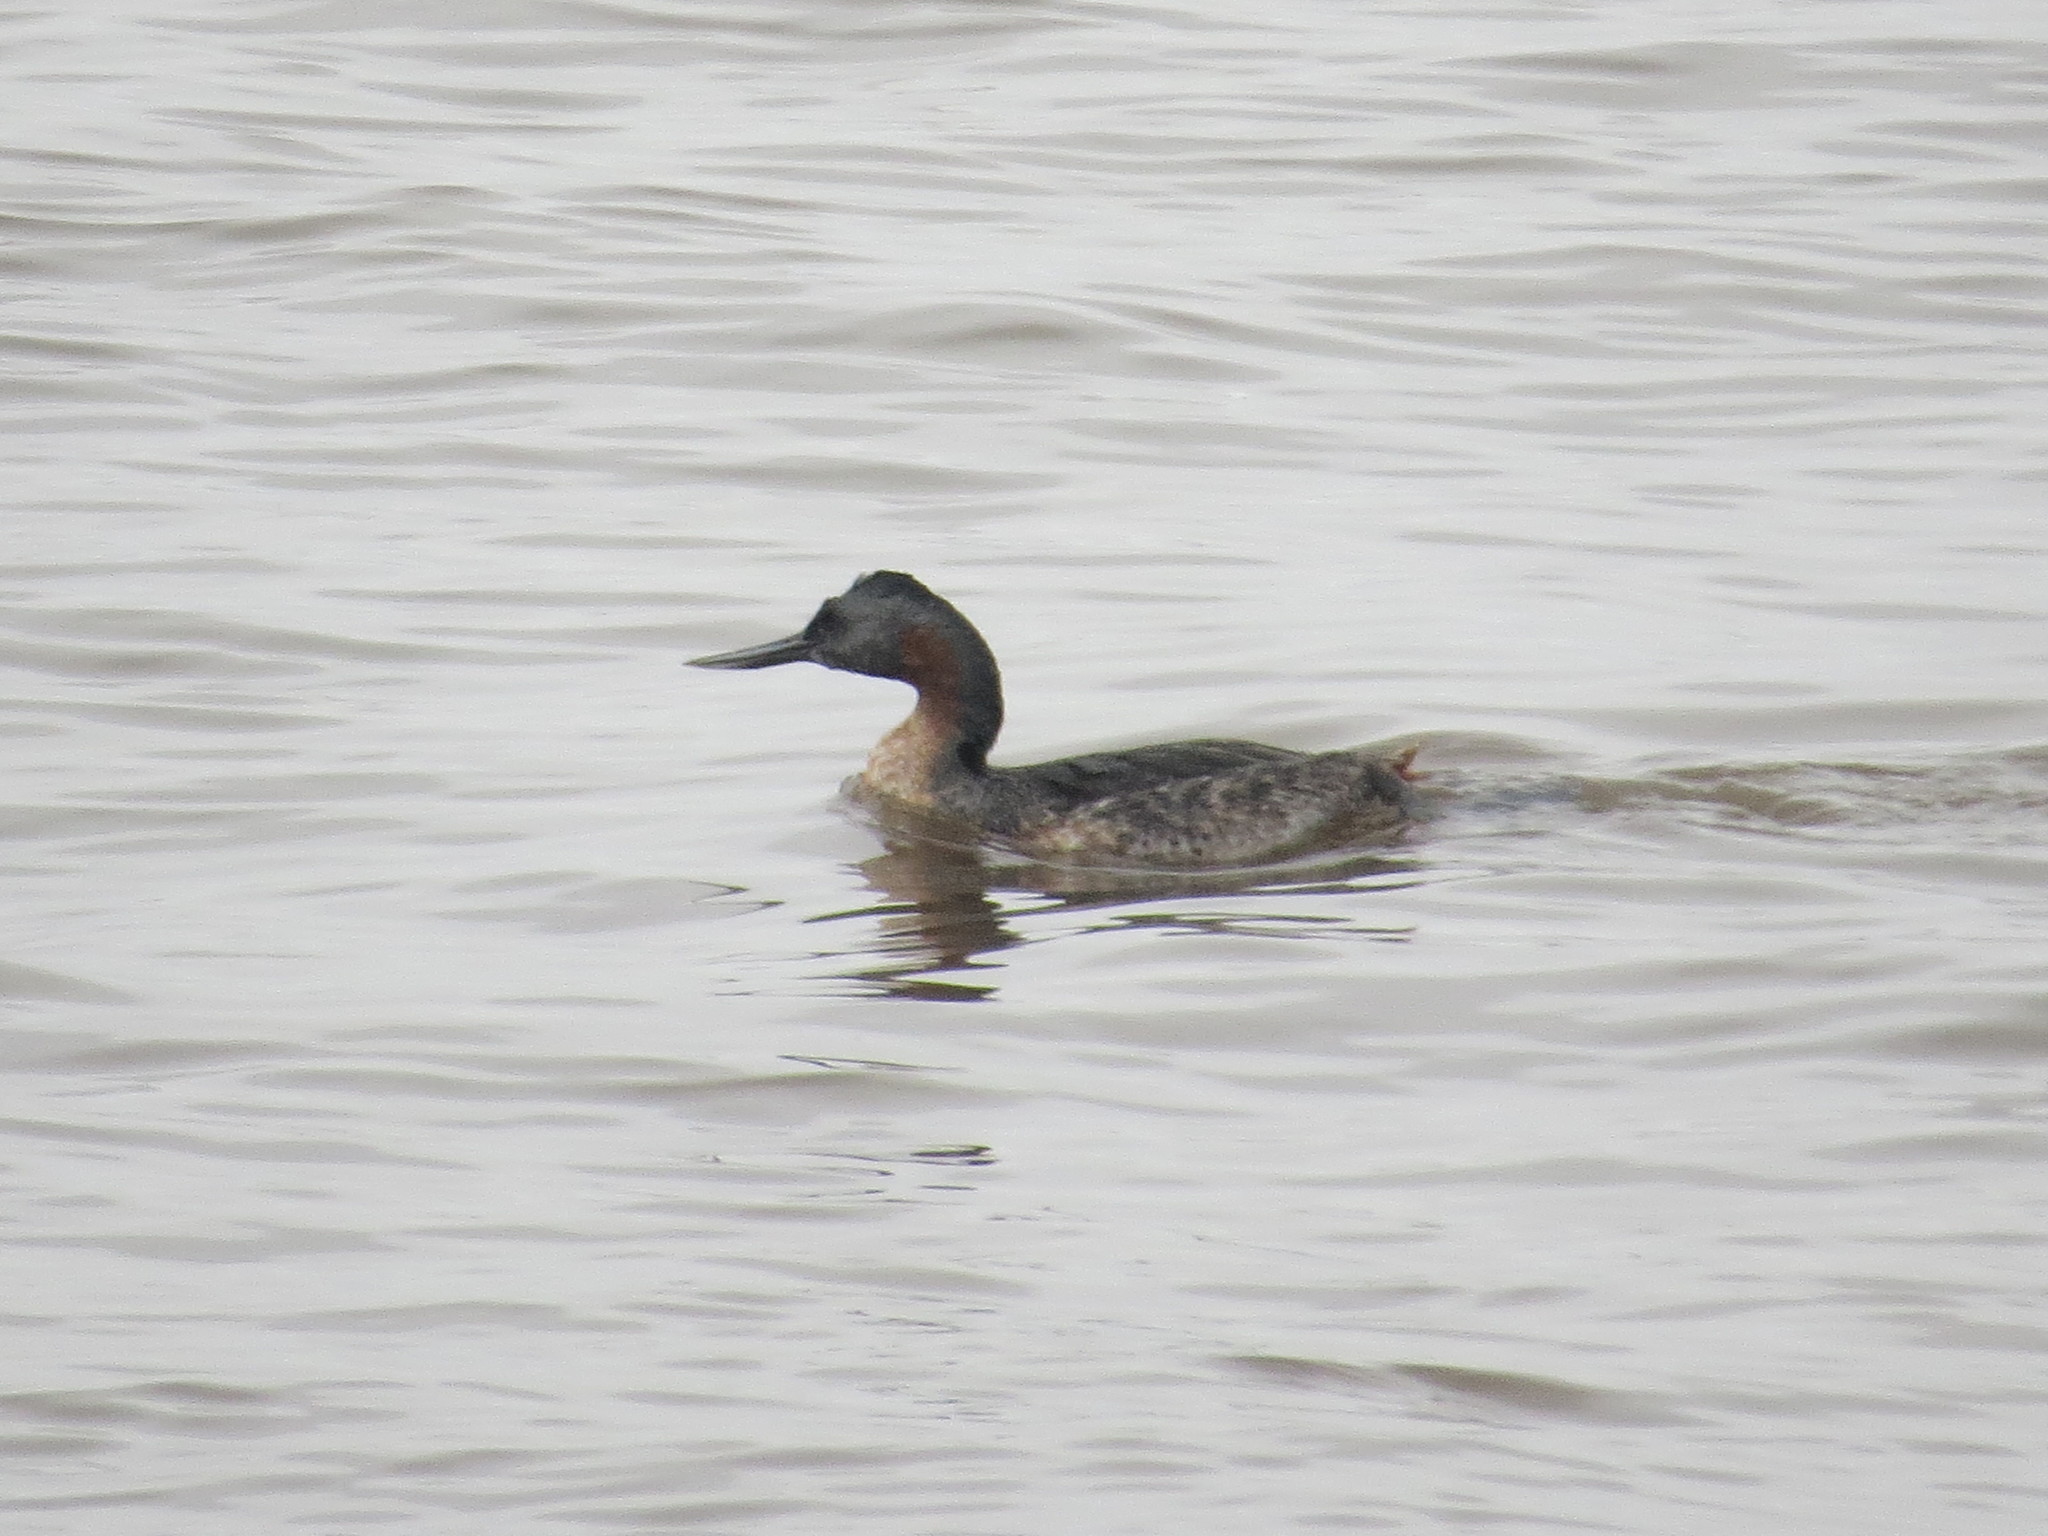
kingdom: Animalia
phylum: Chordata
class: Aves
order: Podicipediformes
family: Podicipedidae
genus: Podiceps
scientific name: Podiceps major
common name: Great grebe
